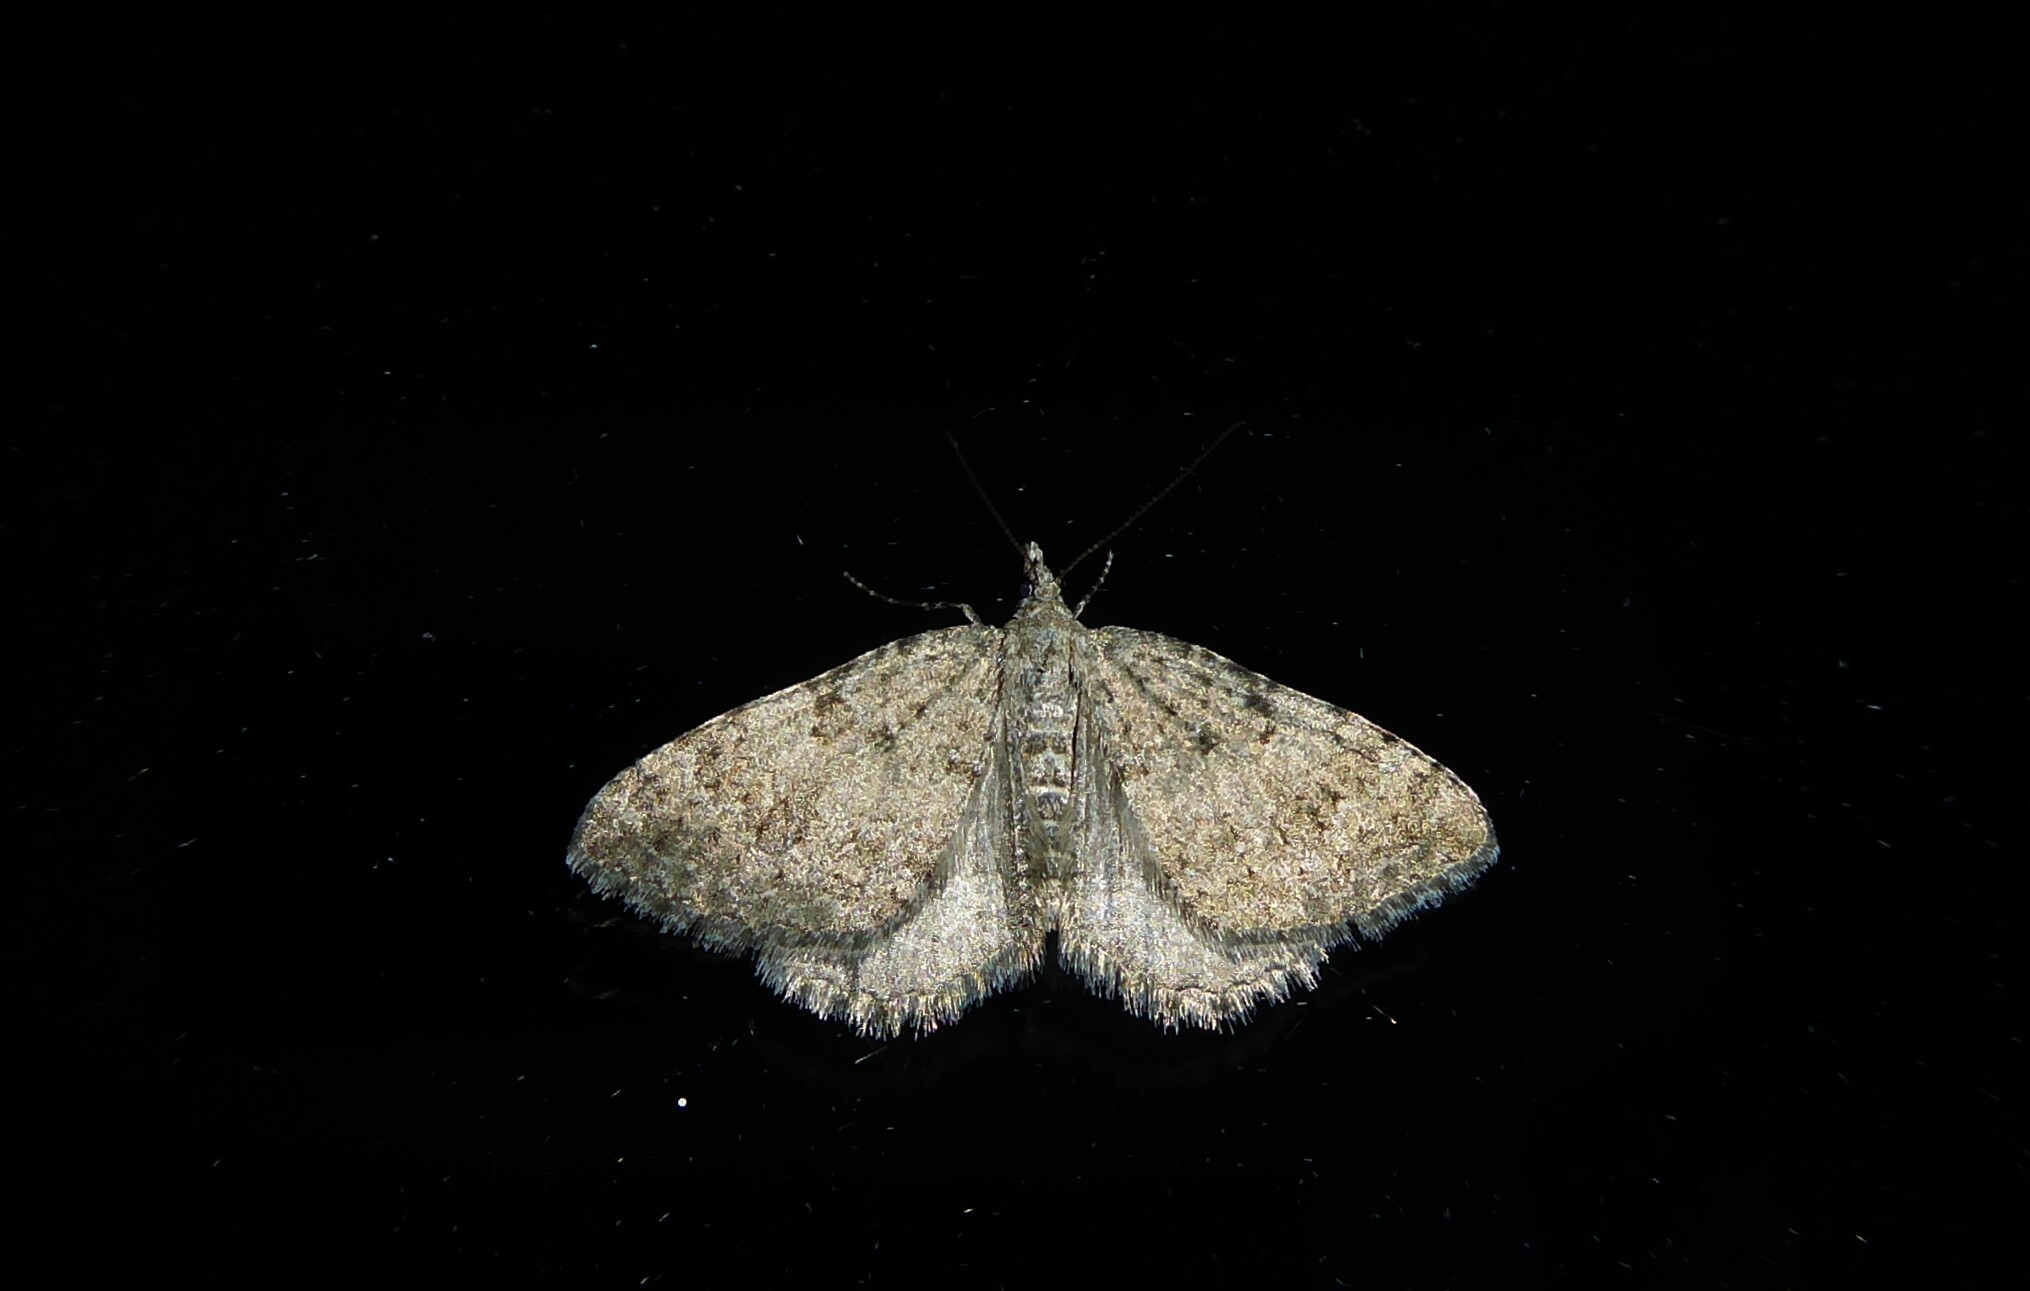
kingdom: Animalia
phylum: Arthropoda
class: Insecta
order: Lepidoptera
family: Geometridae
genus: Helastia
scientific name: Helastia corcularia
